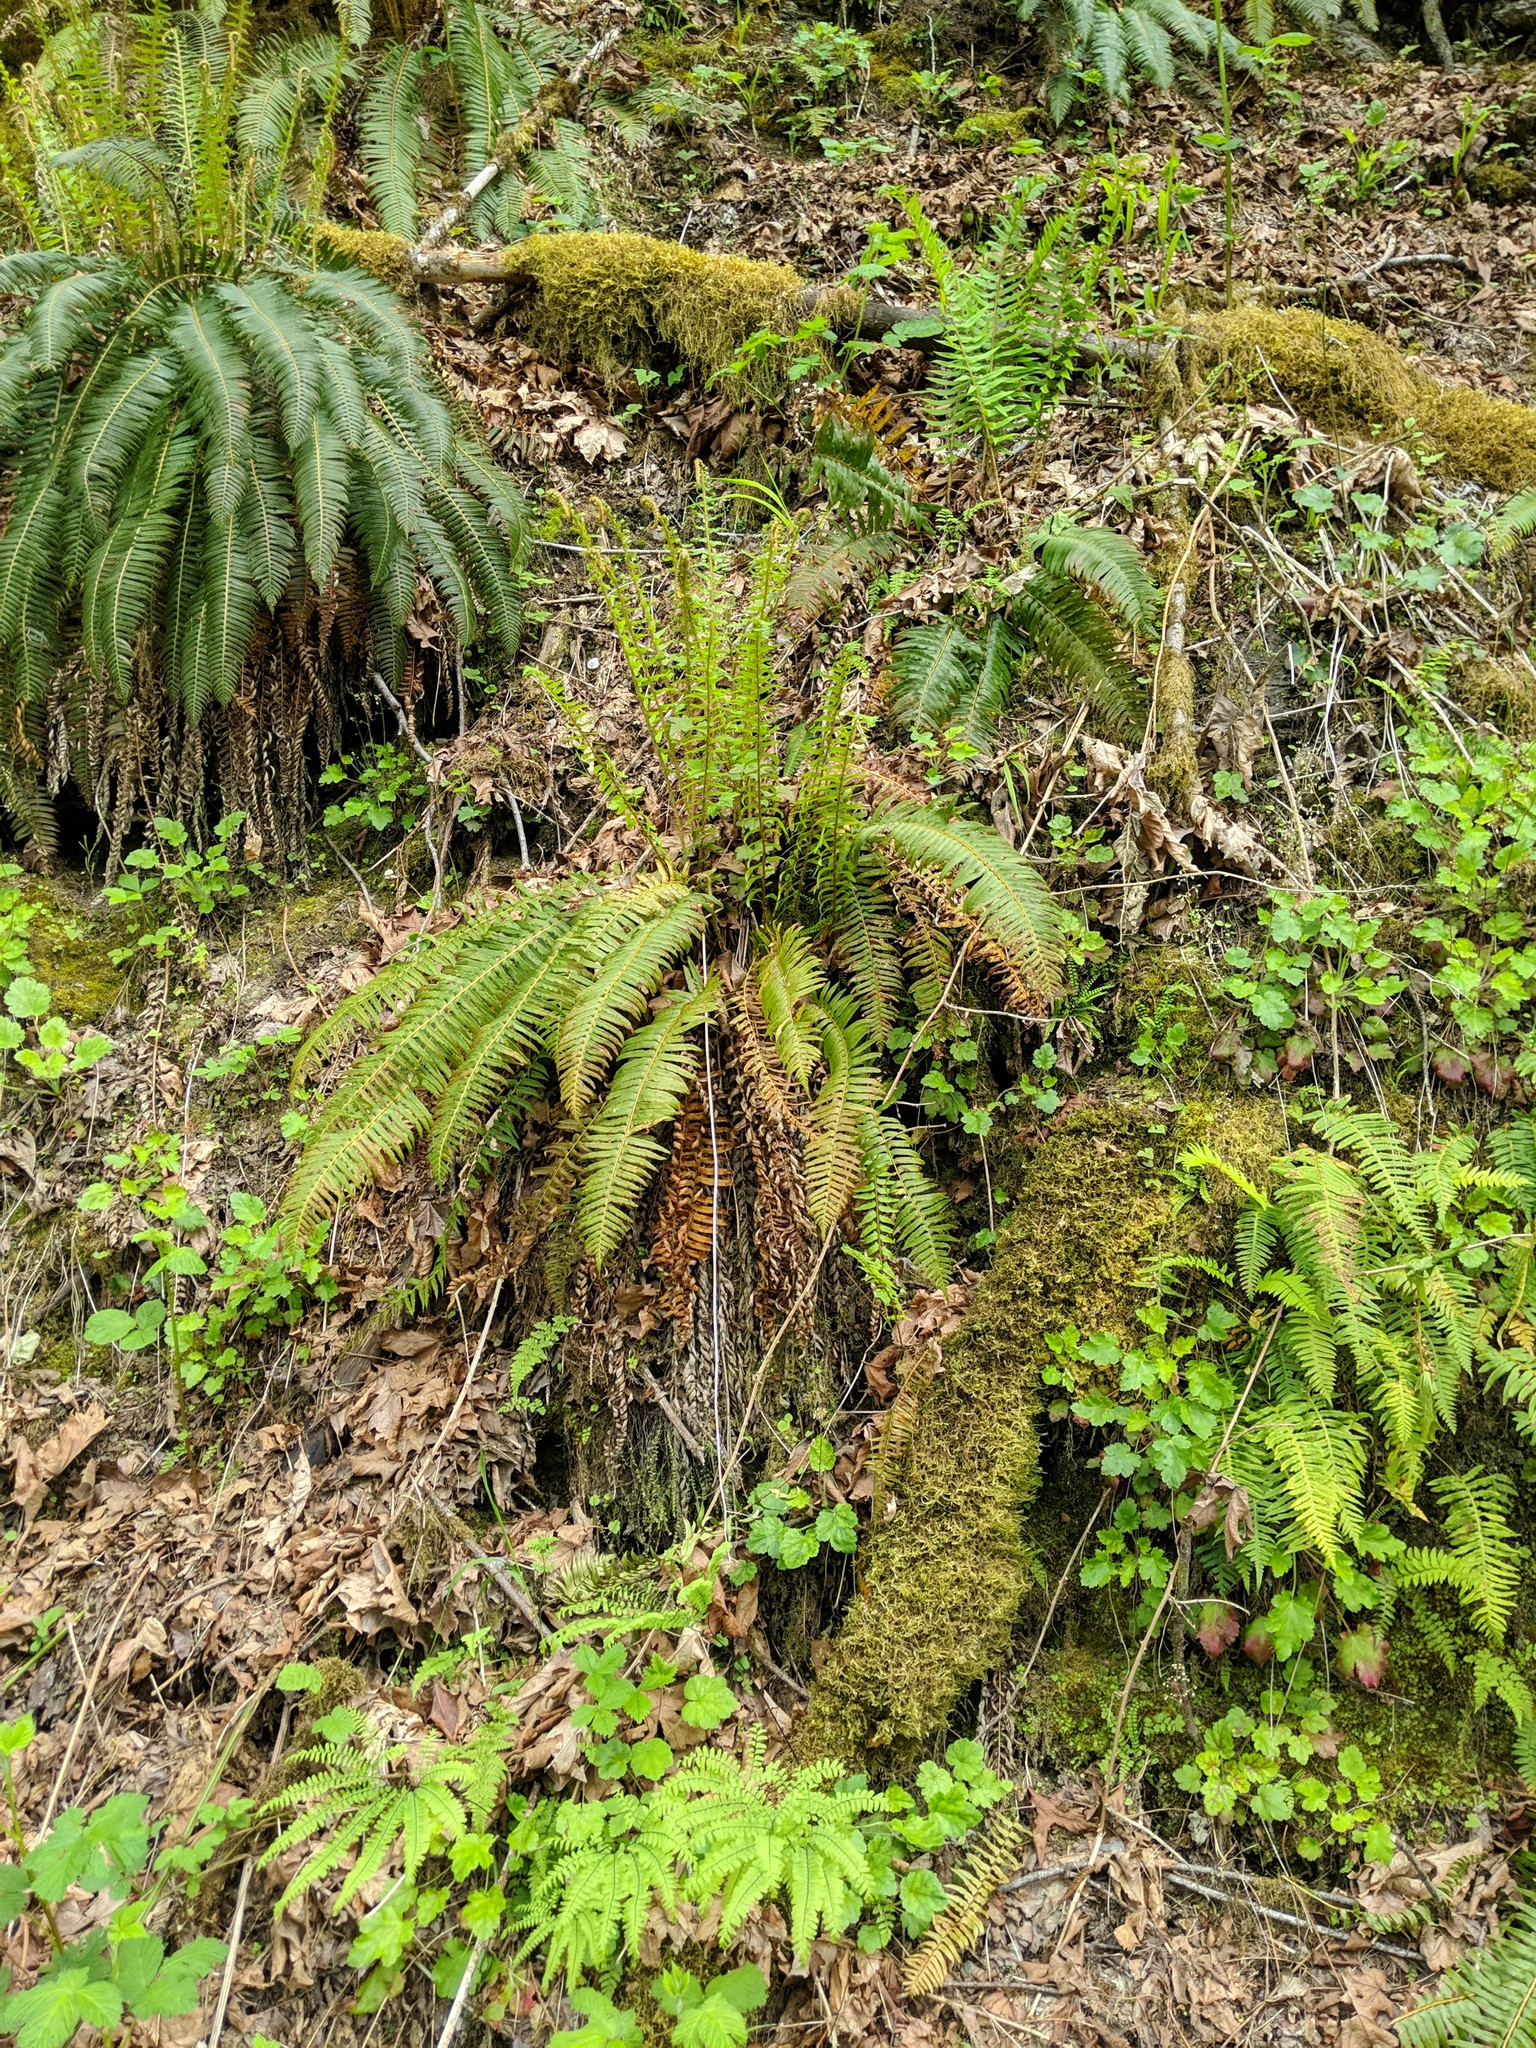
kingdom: Plantae
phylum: Tracheophyta
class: Polypodiopsida
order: Polypodiales
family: Dryopteridaceae
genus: Polystichum
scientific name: Polystichum munitum
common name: Western sword-fern
